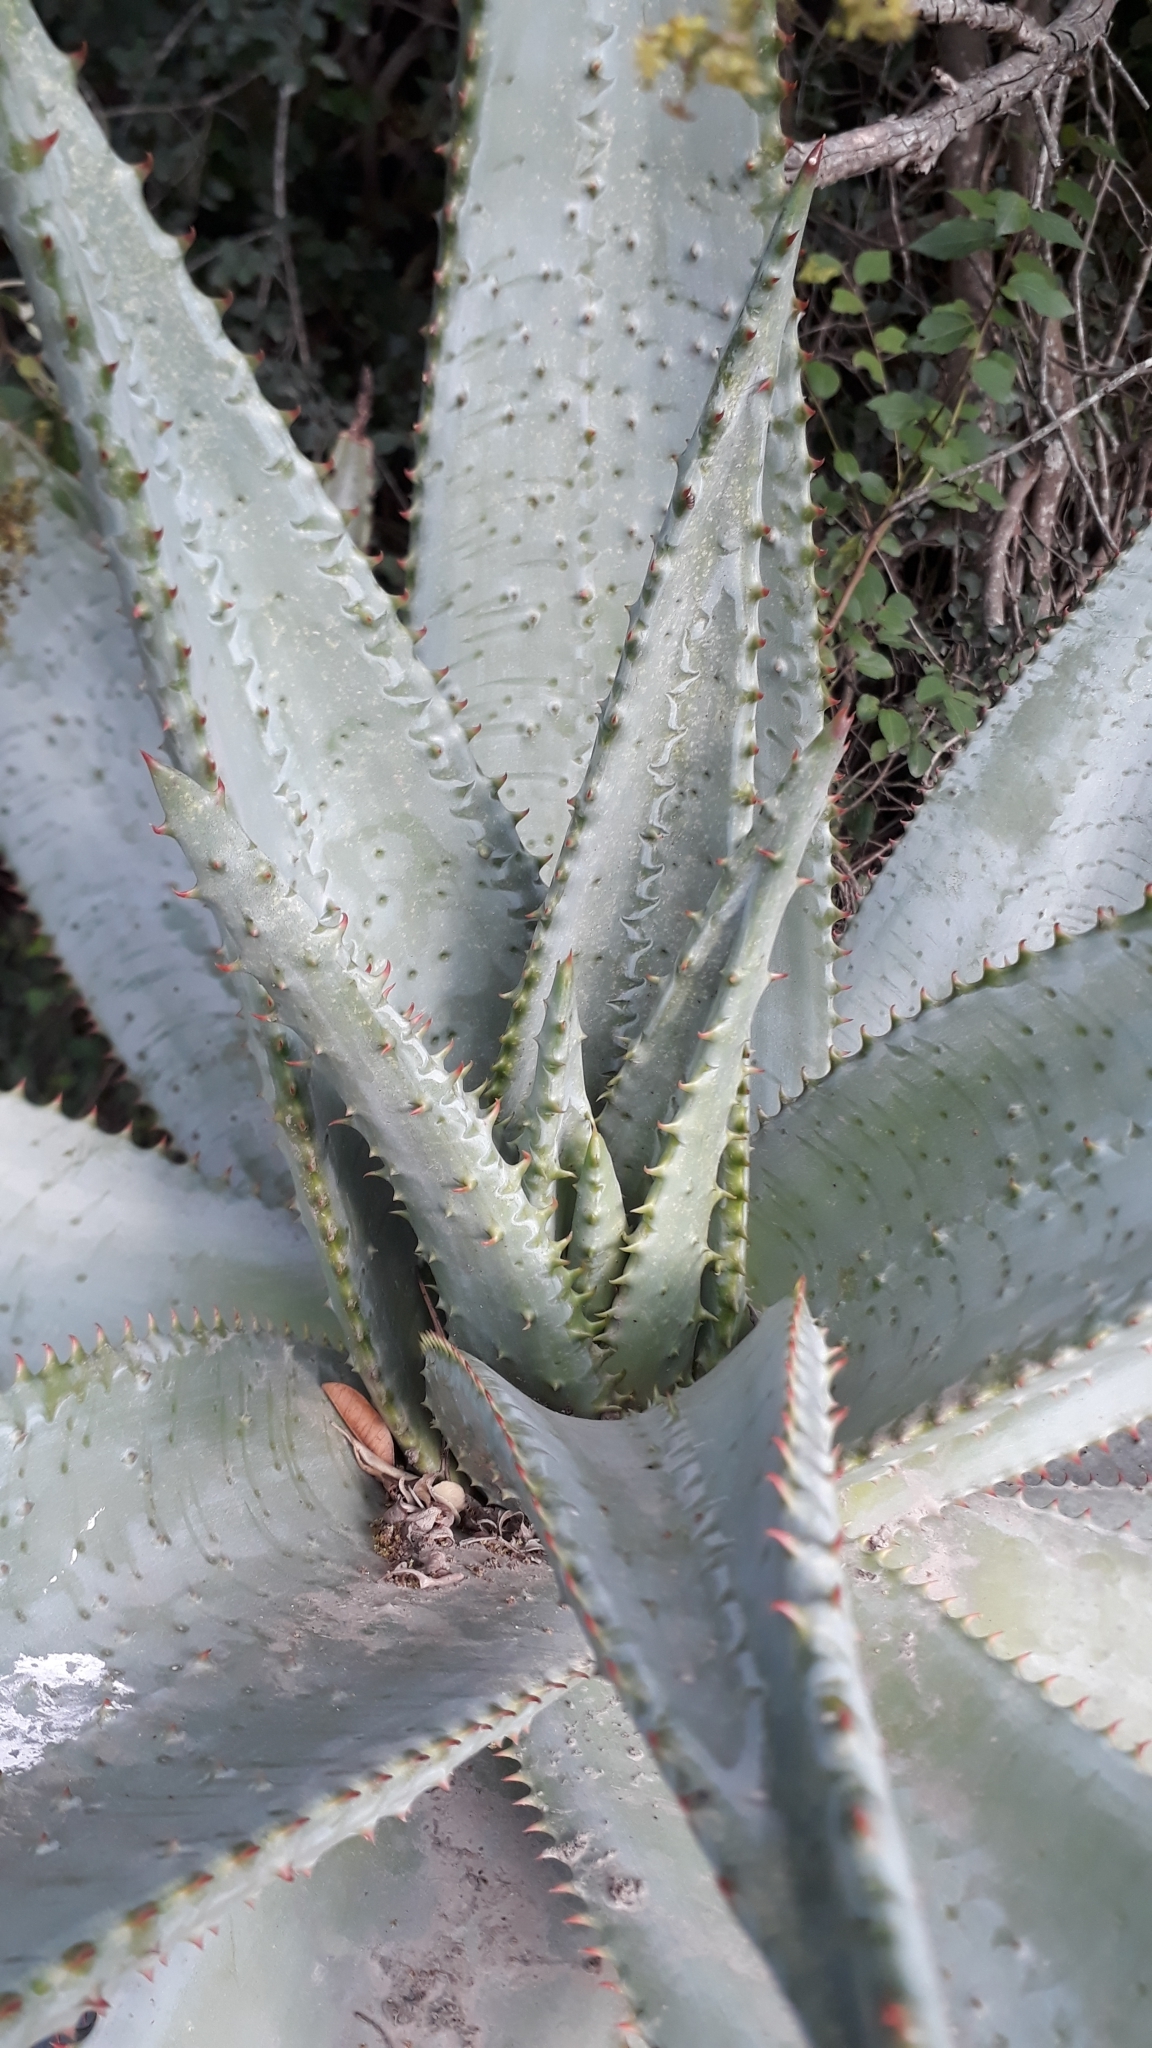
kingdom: Plantae
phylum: Tracheophyta
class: Liliopsida
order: Asparagales
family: Asphodelaceae
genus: Aloe
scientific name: Aloe ferox
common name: Bitter aloe
